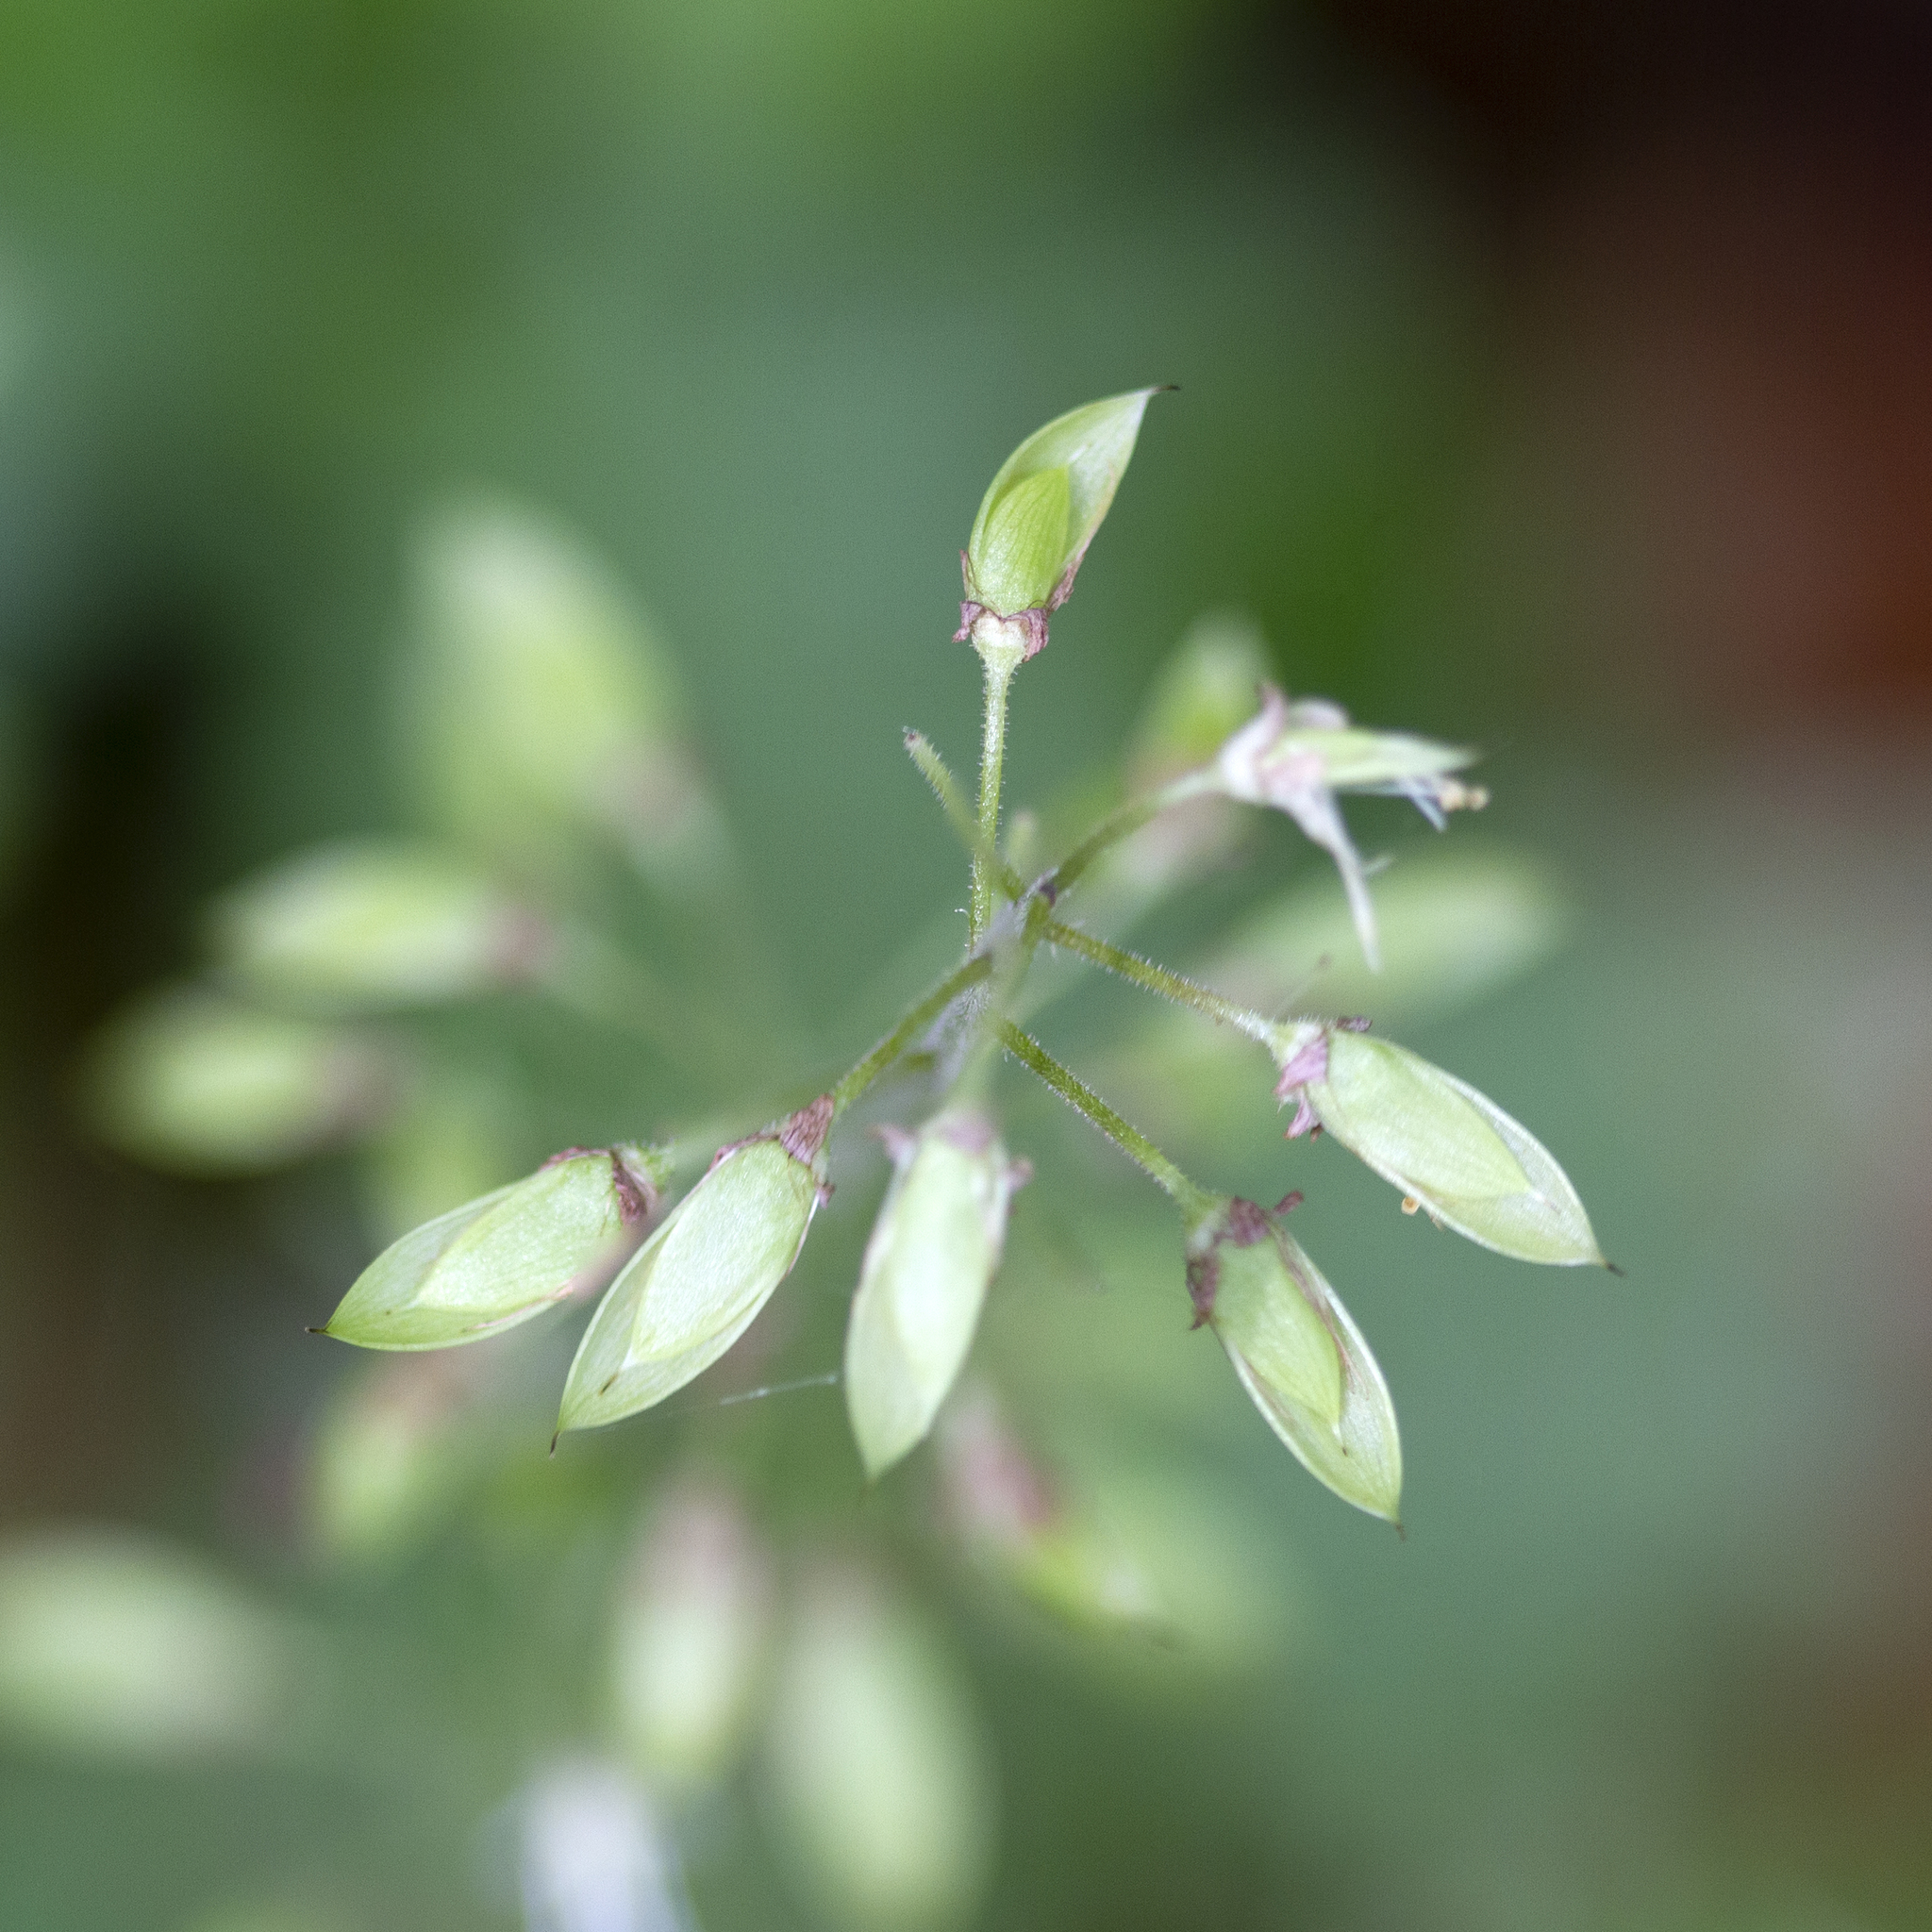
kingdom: Plantae
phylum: Tracheophyta
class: Magnoliopsida
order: Saxifragales
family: Saxifragaceae
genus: Tiarella
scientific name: Tiarella stolonifera
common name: Stoloniferous foamflower
